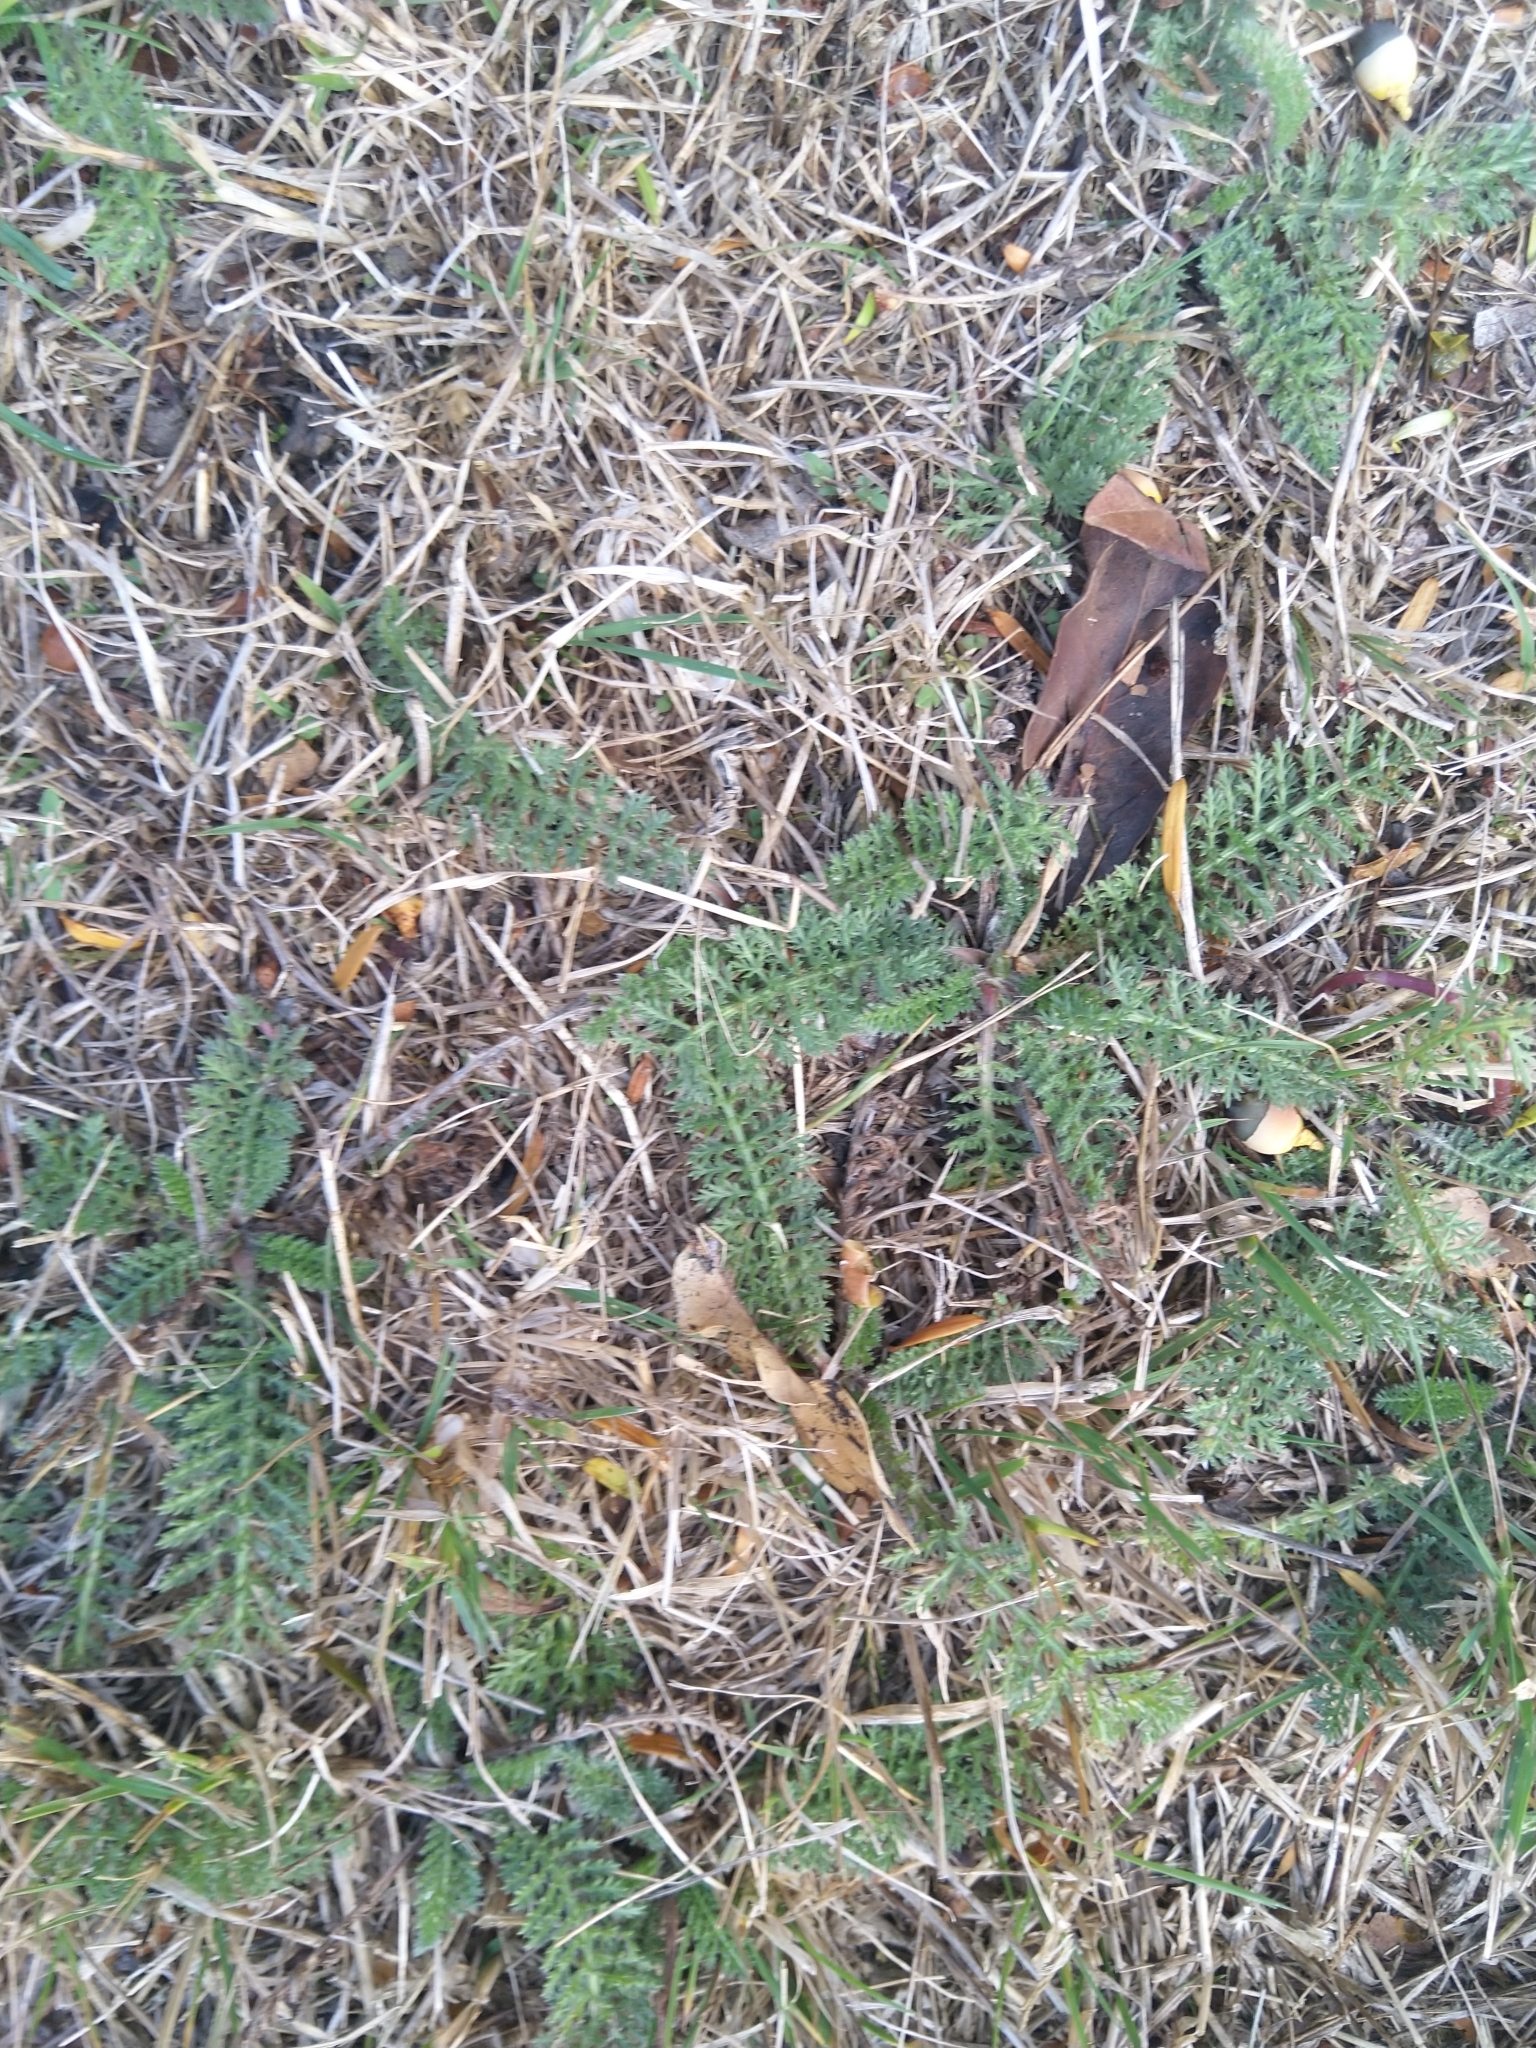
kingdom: Plantae
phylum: Tracheophyta
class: Magnoliopsida
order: Asterales
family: Asteraceae
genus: Achillea
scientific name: Achillea millefolium
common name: Yarrow
